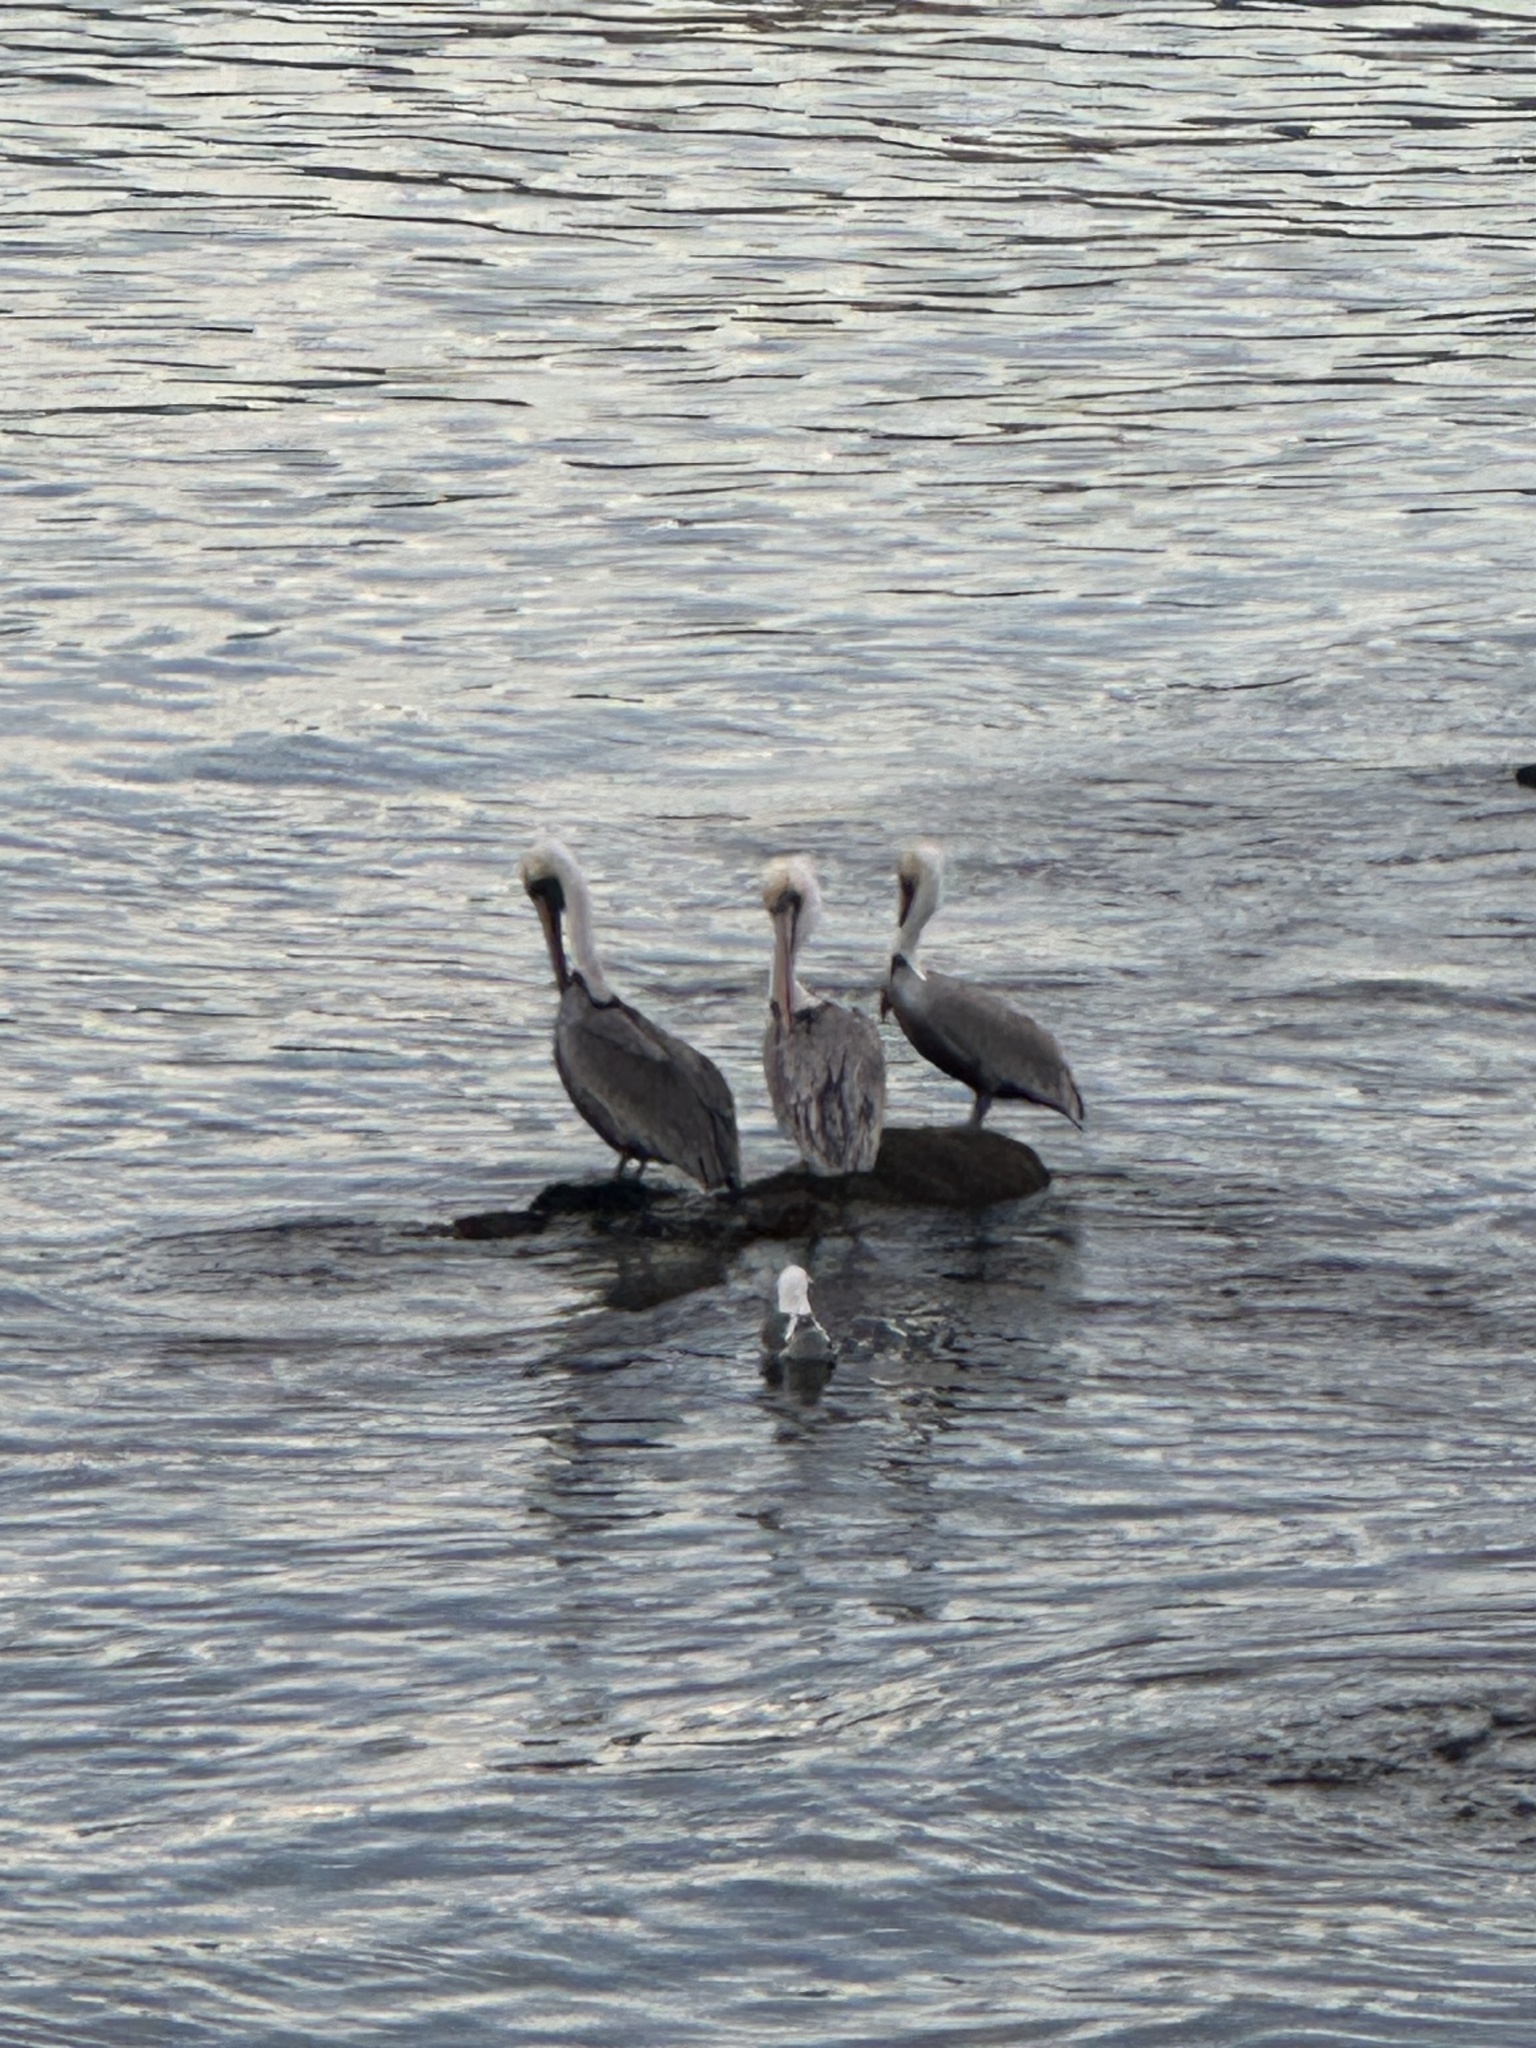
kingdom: Animalia
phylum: Chordata
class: Aves
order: Pelecaniformes
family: Pelecanidae
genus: Pelecanus
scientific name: Pelecanus occidentalis
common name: Brown pelican
